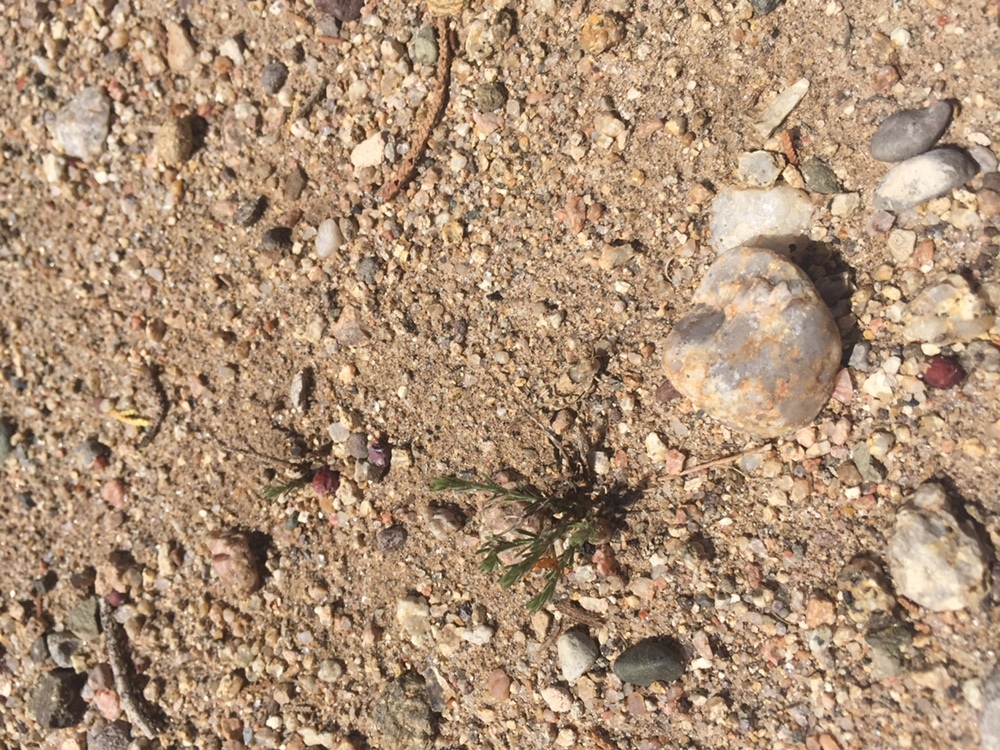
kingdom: Animalia
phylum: Arthropoda
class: Insecta
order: Orthoptera
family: Acrididae
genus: Cibolacris
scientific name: Cibolacris parviceps
